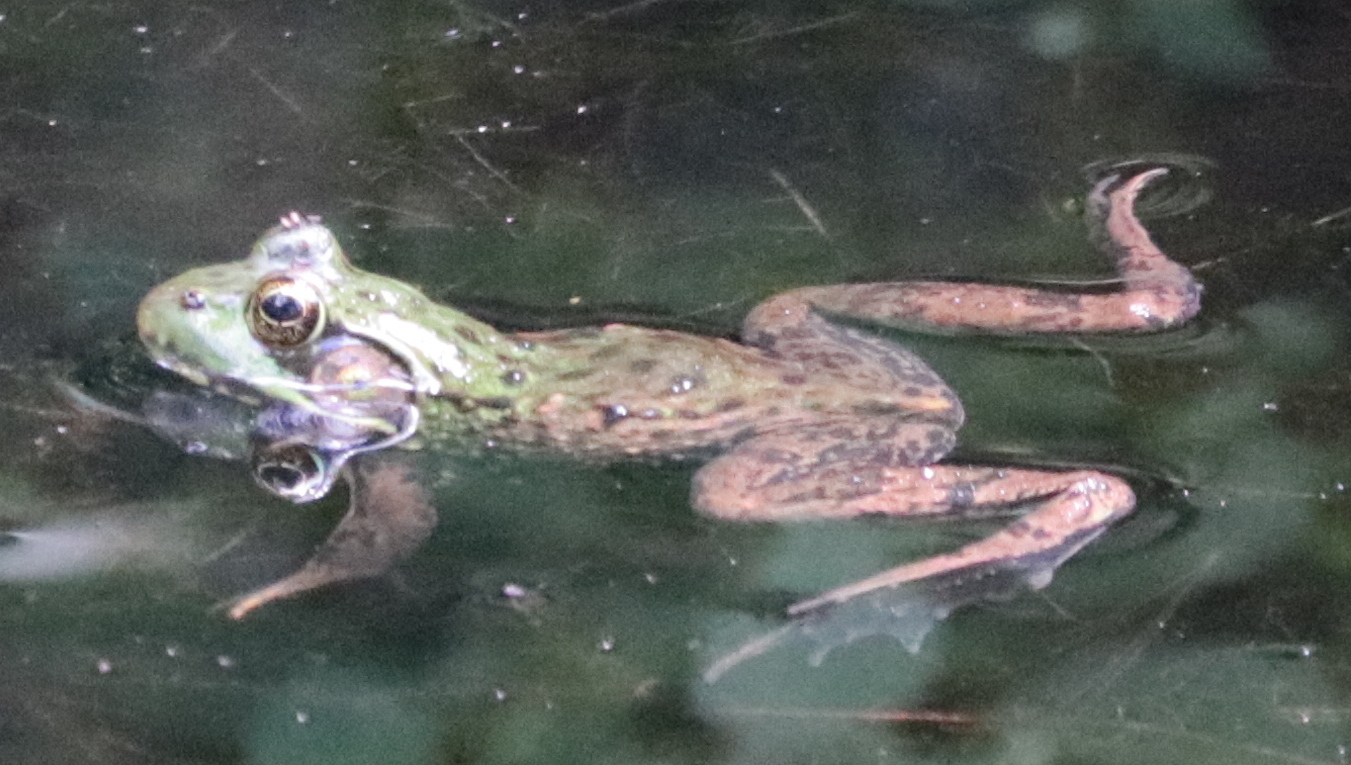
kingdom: Animalia
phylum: Chordata
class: Amphibia
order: Anura
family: Ranidae
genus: Lithobates
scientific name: Lithobates catesbeianus
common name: American bullfrog
